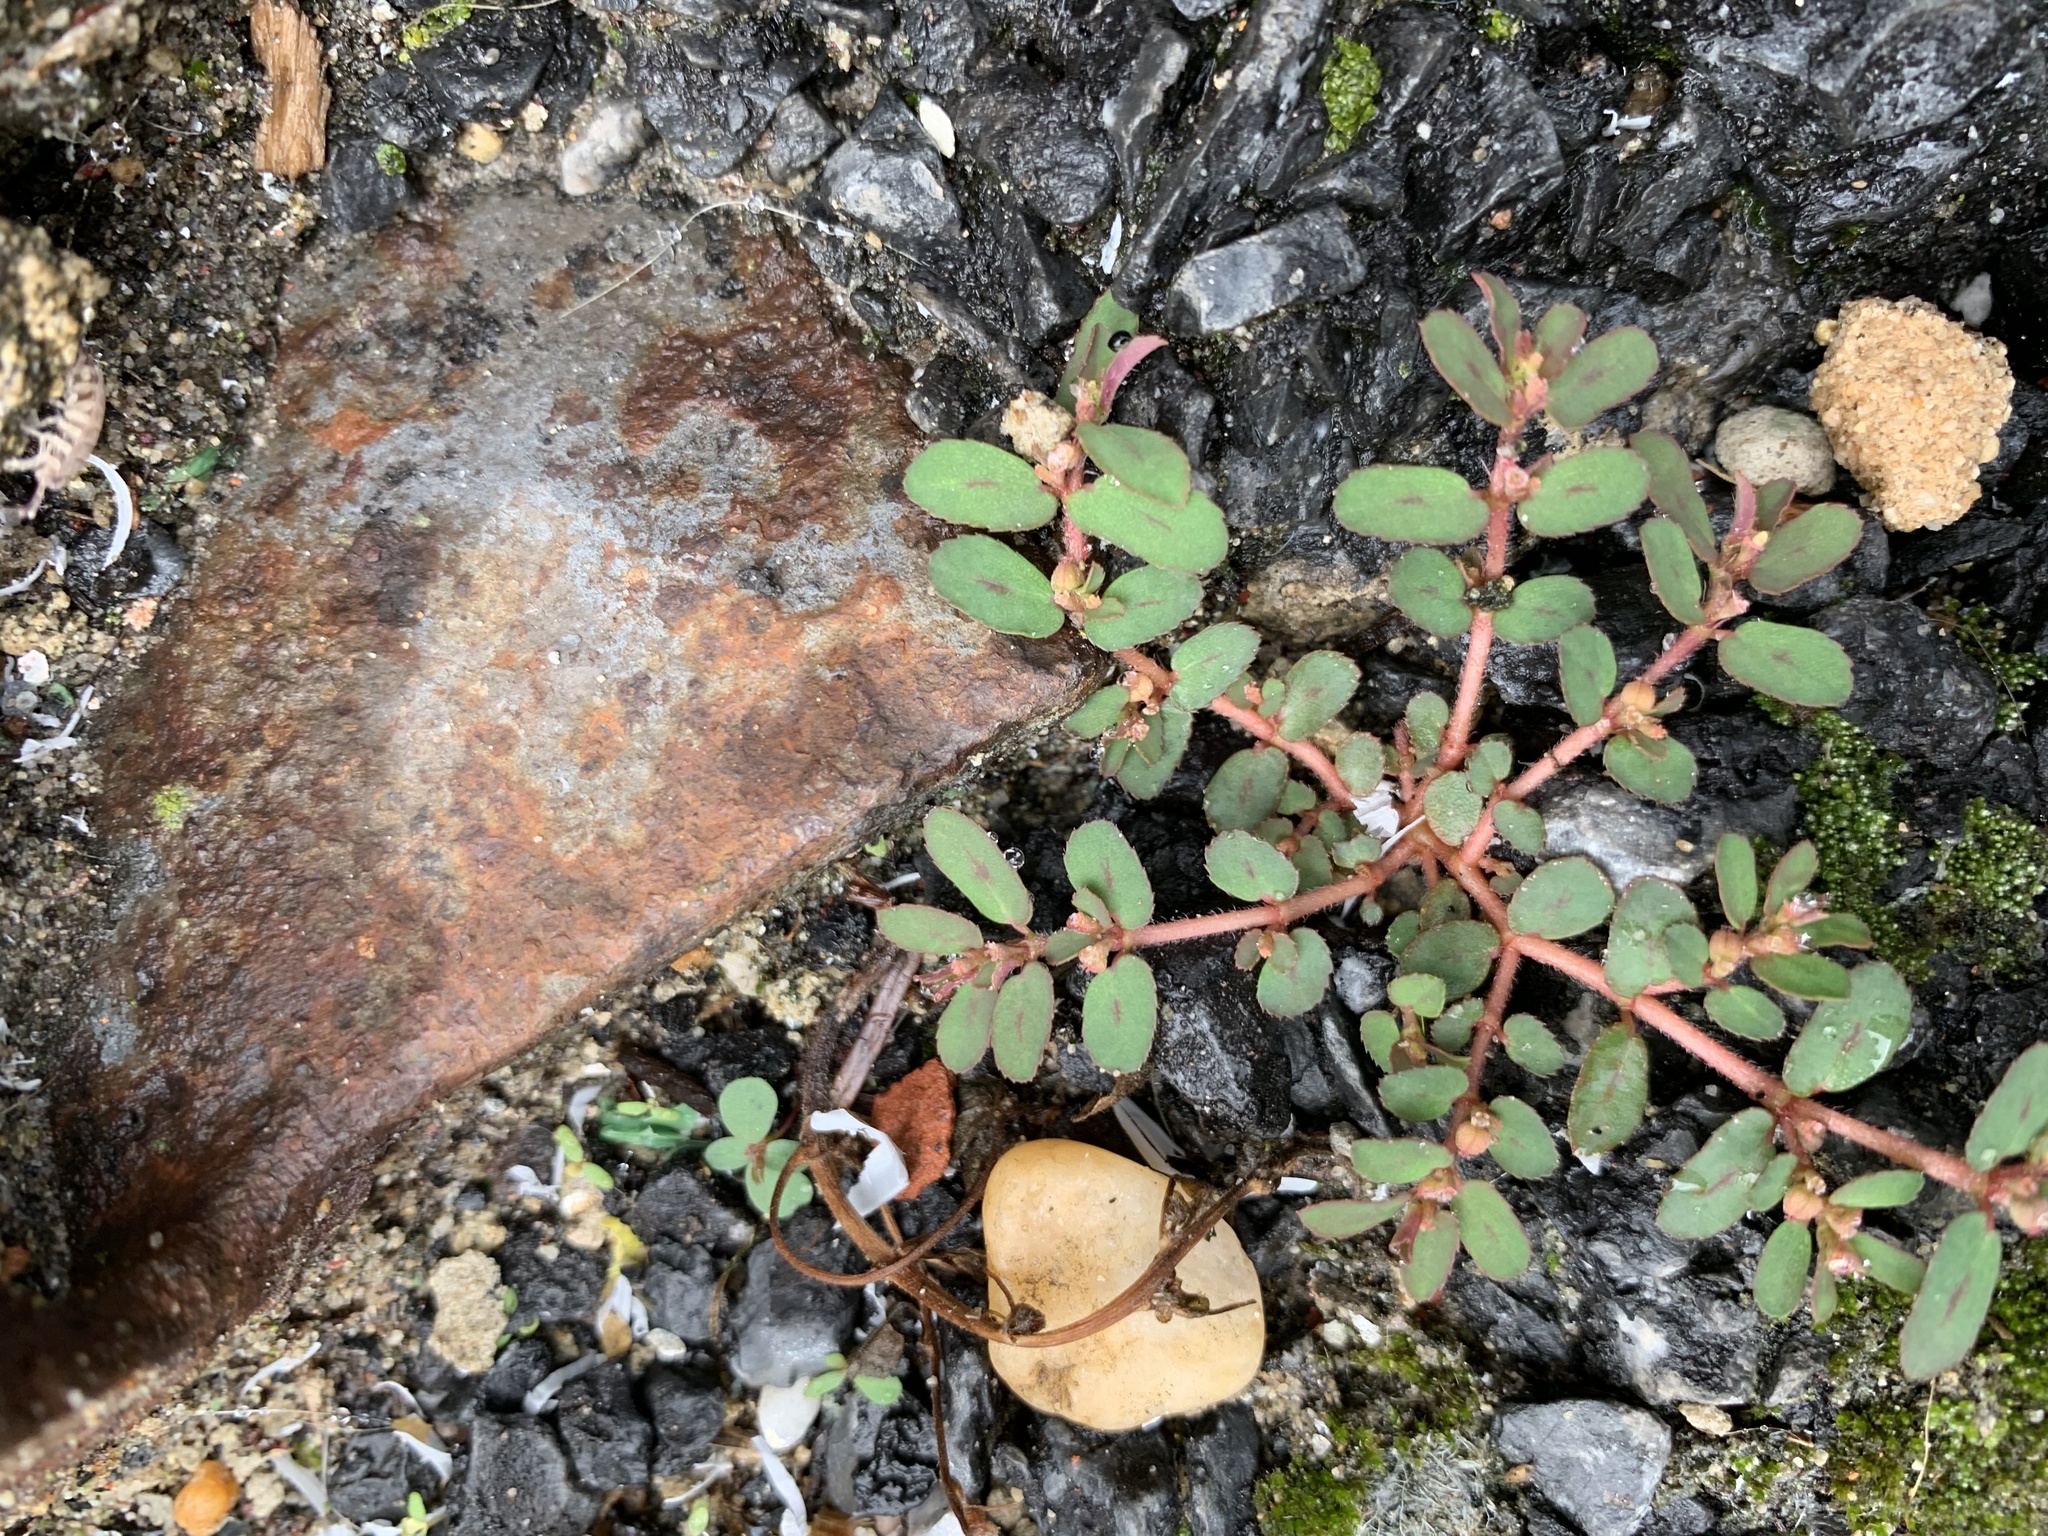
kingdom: Plantae
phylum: Tracheophyta
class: Magnoliopsida
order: Malpighiales
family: Euphorbiaceae
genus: Euphorbia
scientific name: Euphorbia maculata
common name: Spotted spurge
